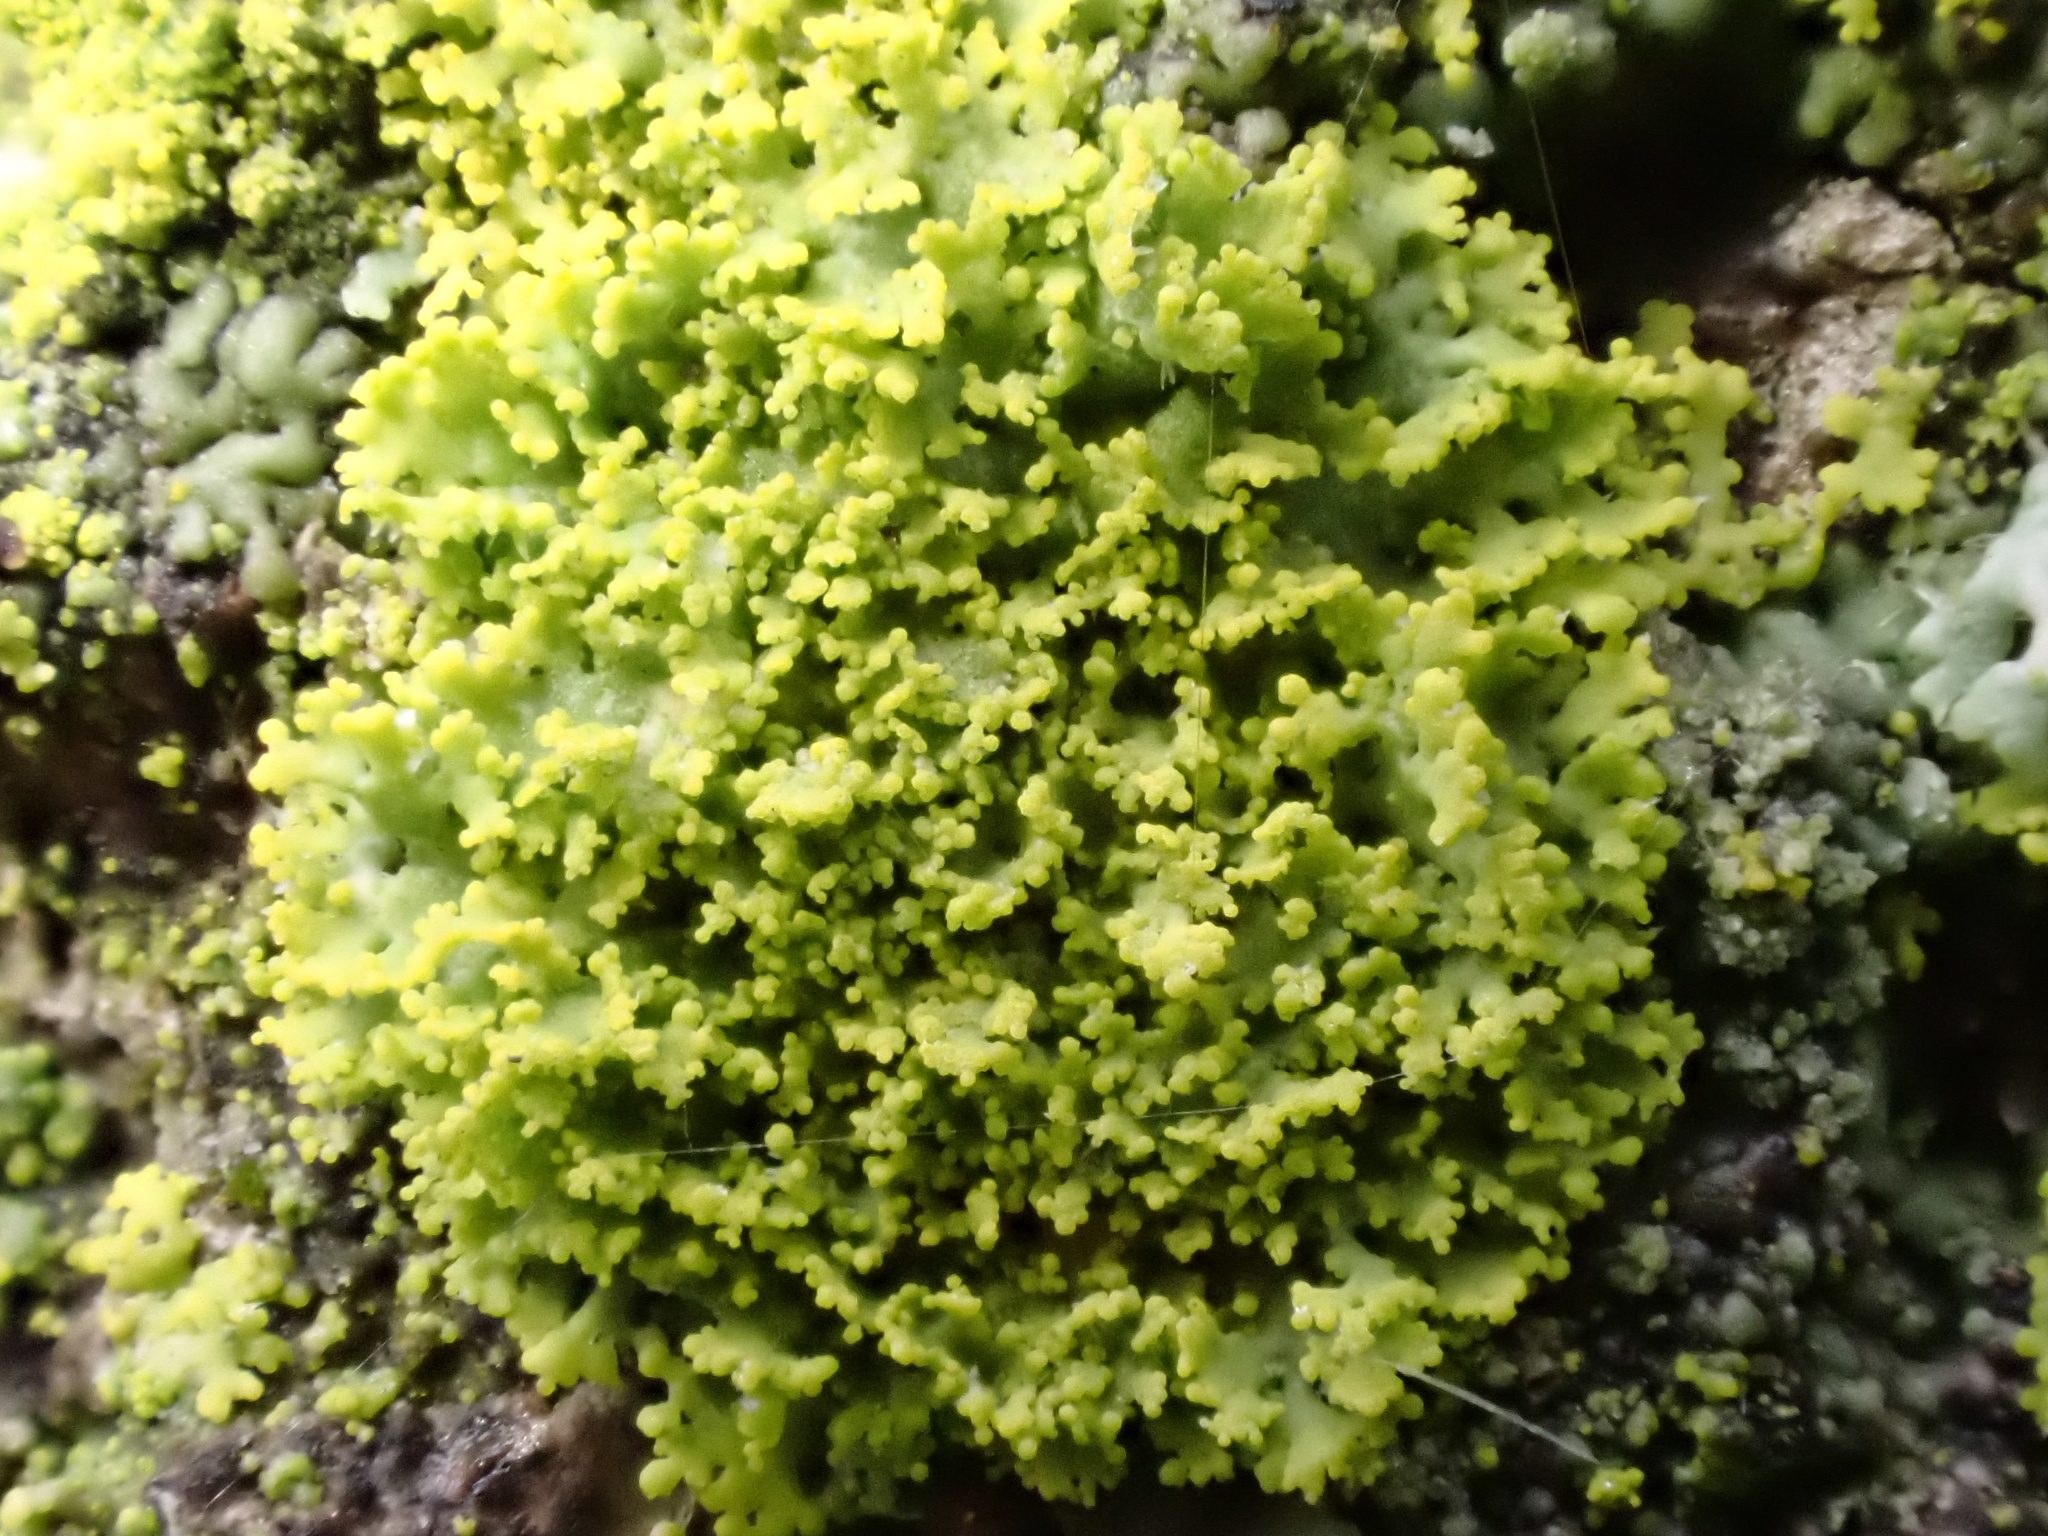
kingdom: Fungi
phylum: Ascomycota
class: Candelariomycetes
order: Candelariales
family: Candelariaceae
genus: Candelaria
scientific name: Candelaria concolor
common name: Candleflame lichen
